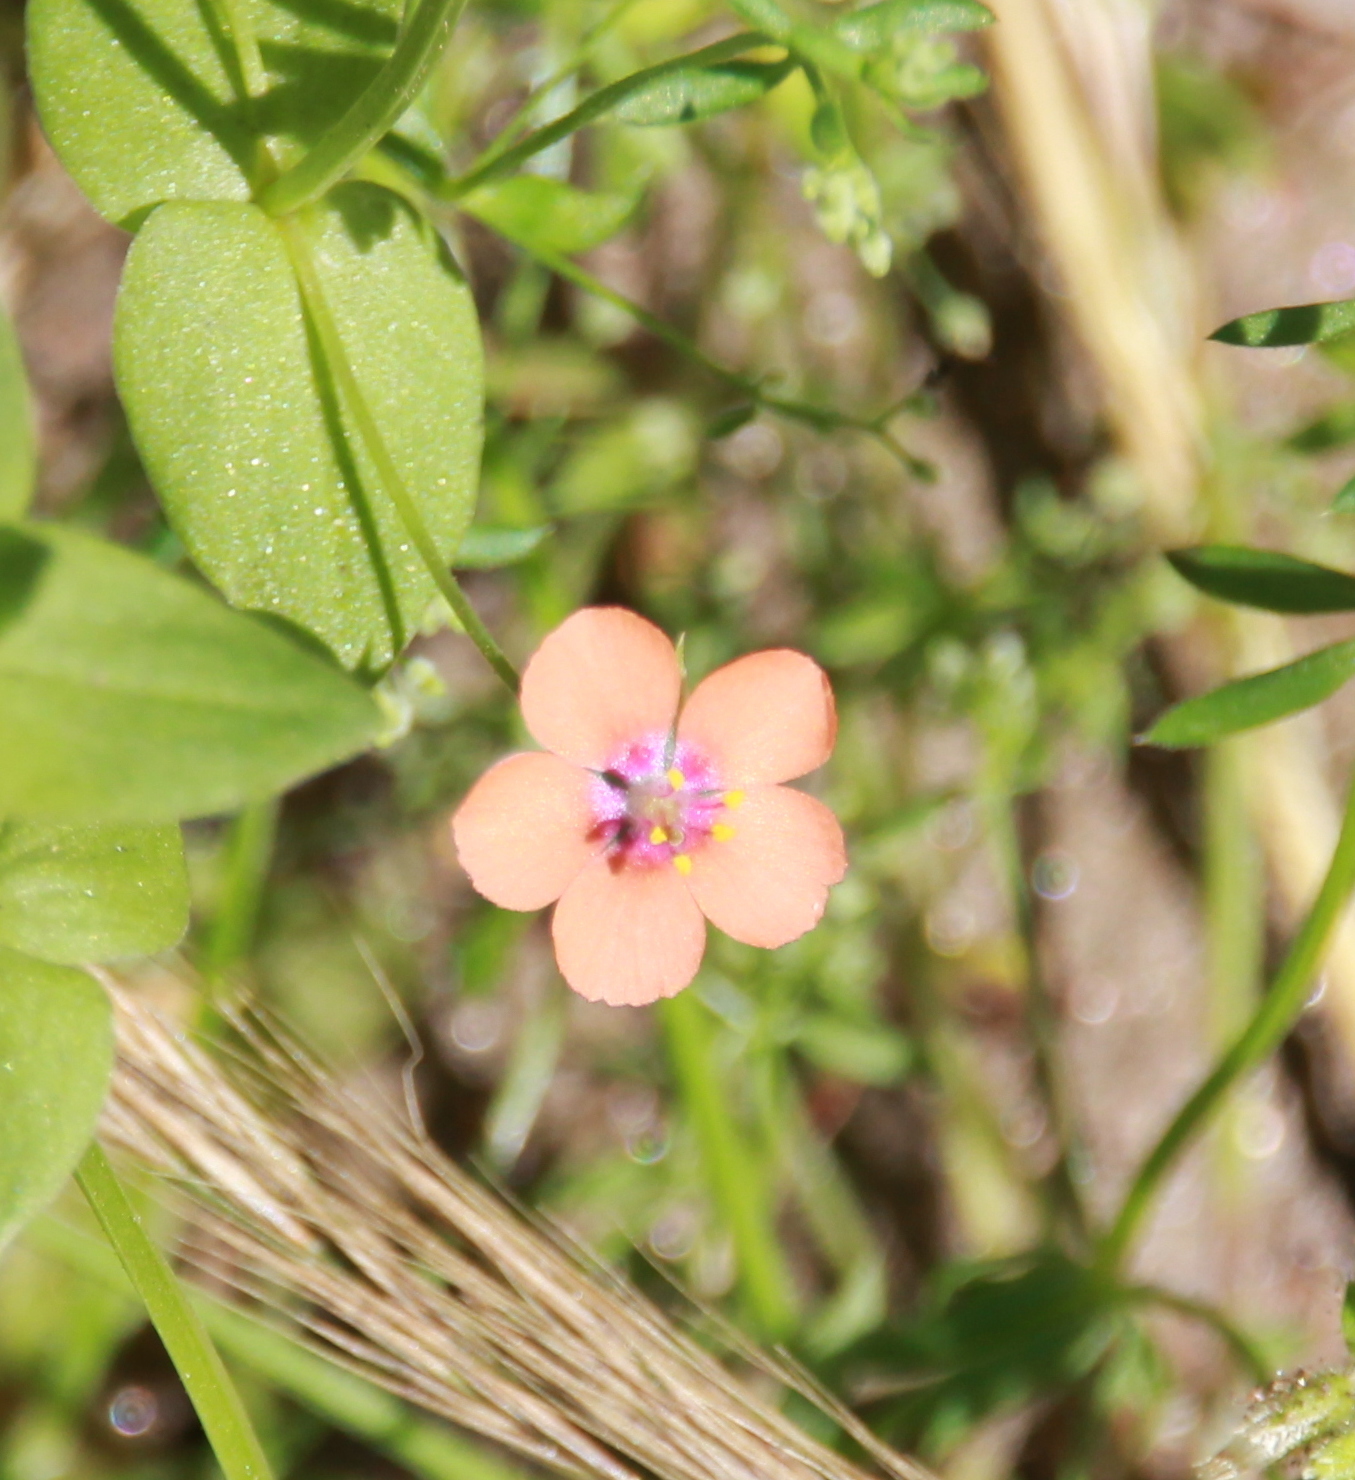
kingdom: Plantae
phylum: Tracheophyta
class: Magnoliopsida
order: Ericales
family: Primulaceae
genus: Lysimachia
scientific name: Lysimachia arvensis
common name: Scarlet pimpernel
